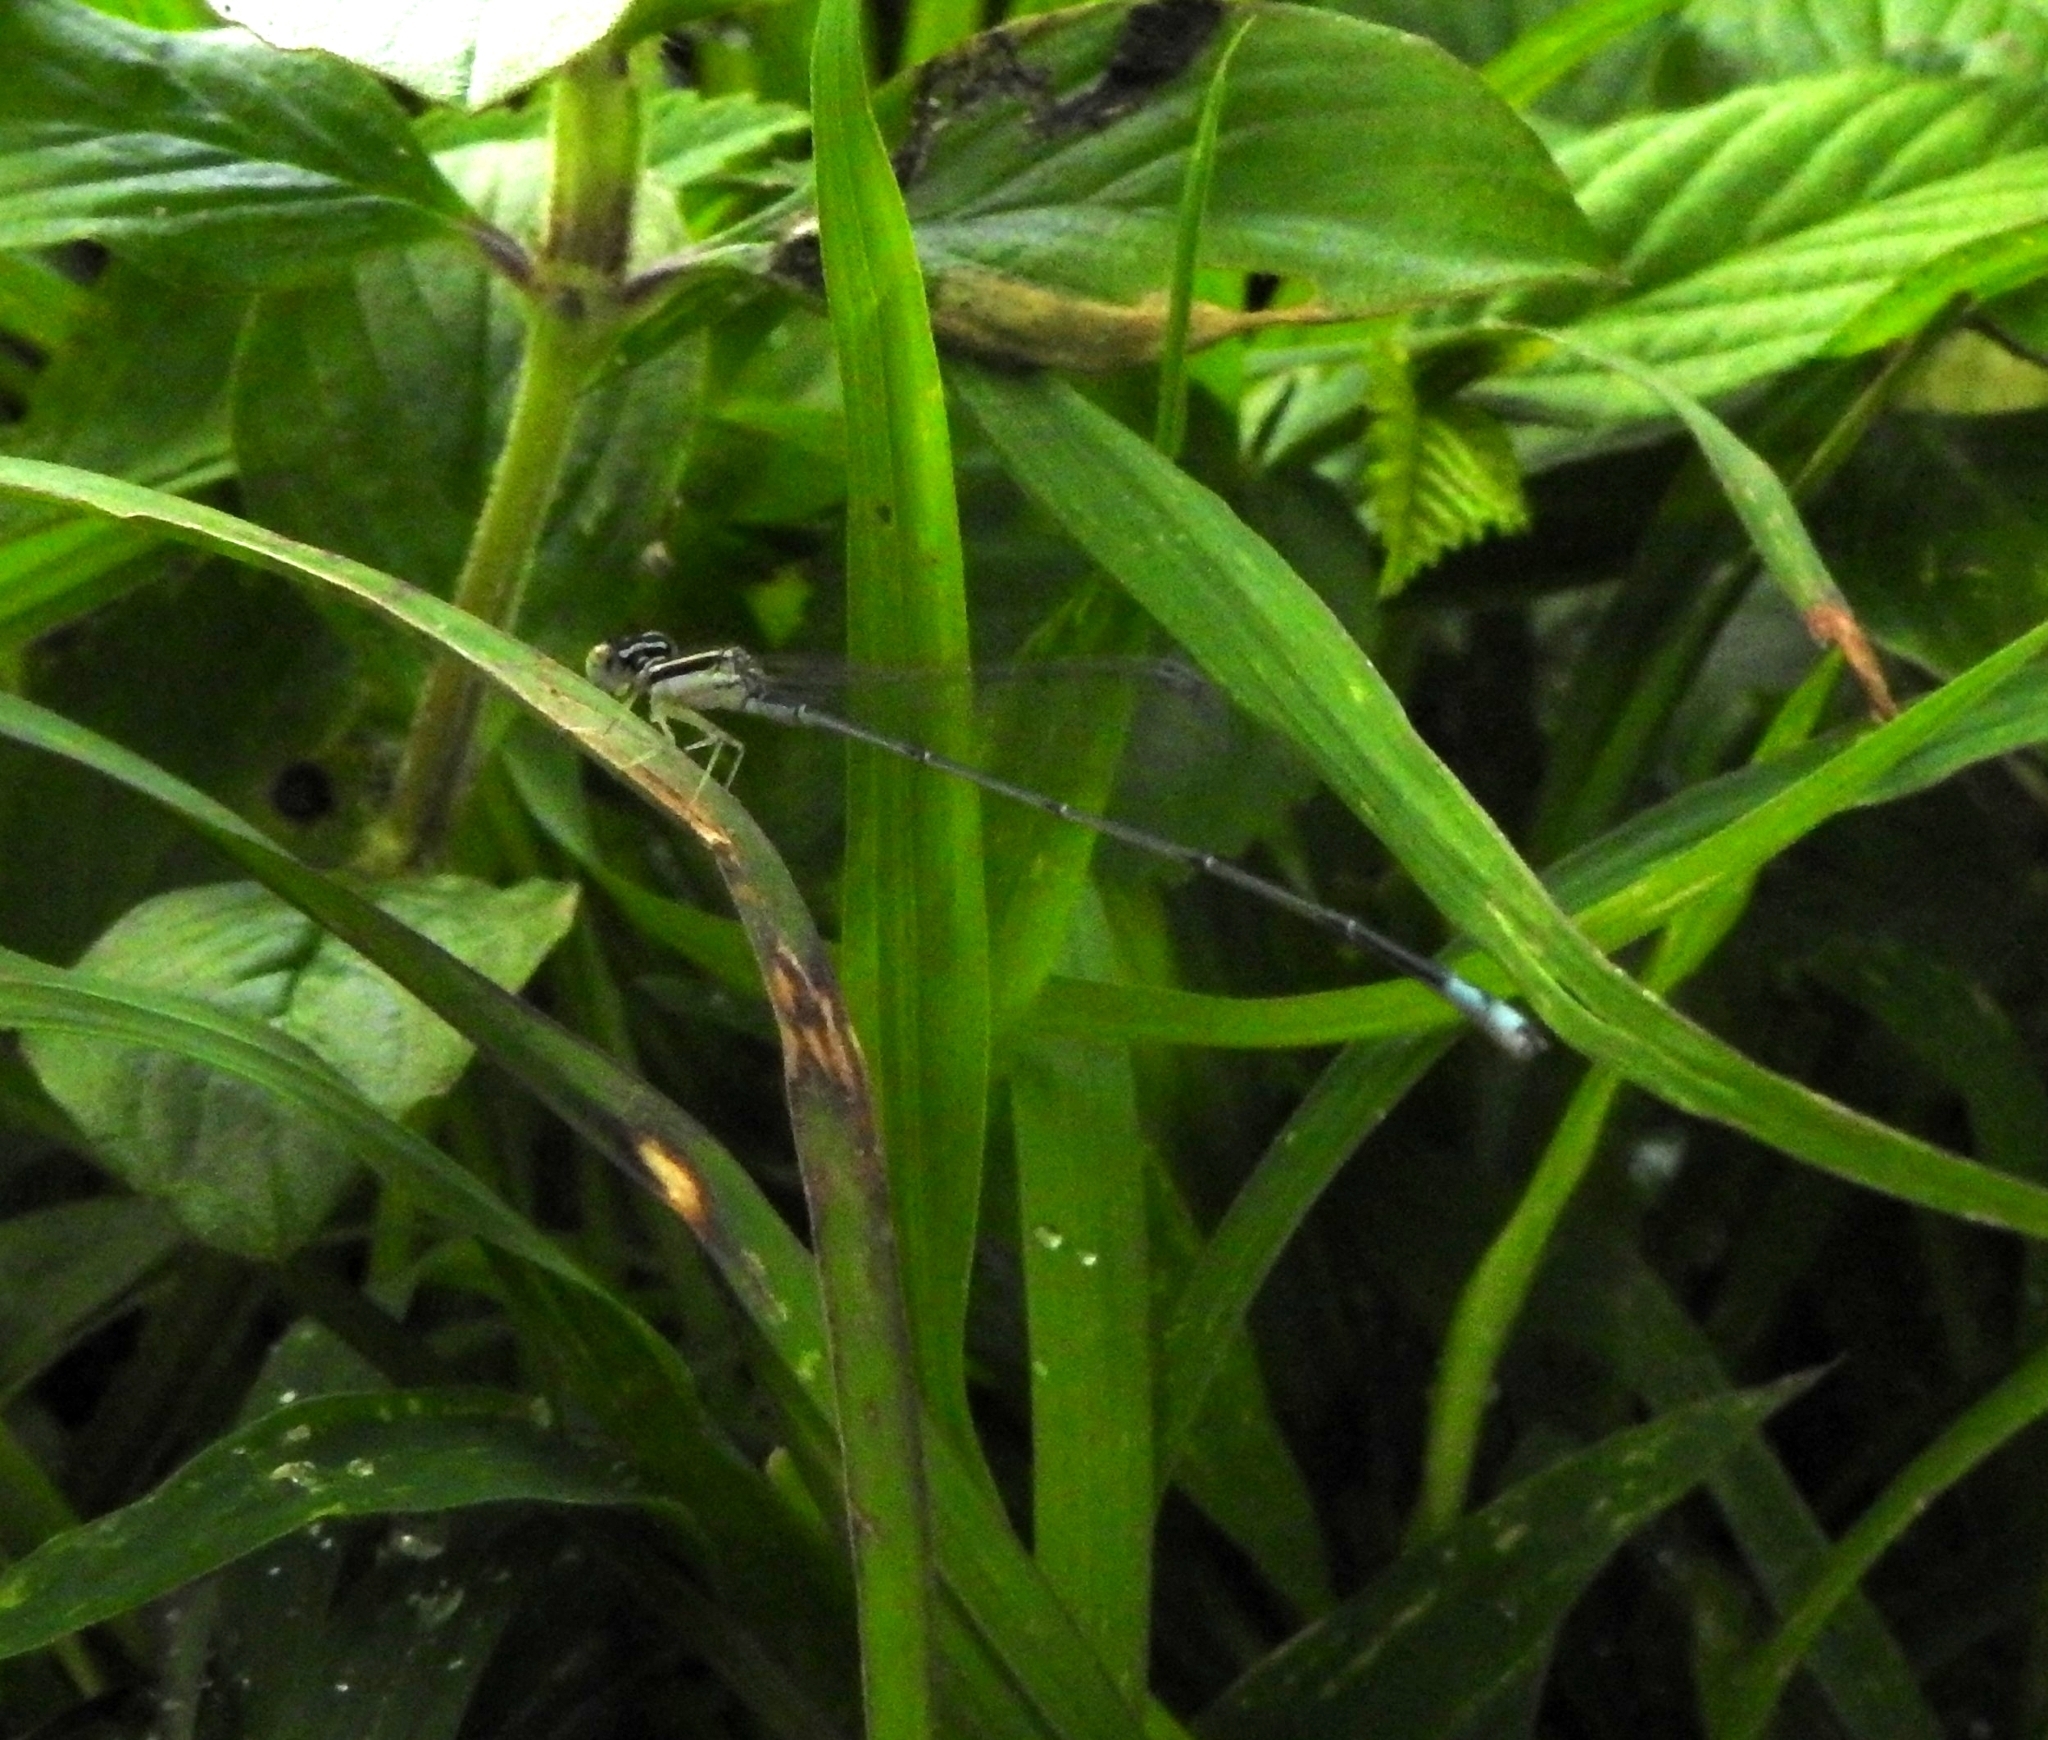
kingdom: Animalia
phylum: Arthropoda
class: Insecta
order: Odonata
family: Coenagrionidae
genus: Aciagrion
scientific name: Aciagrion occidentale
